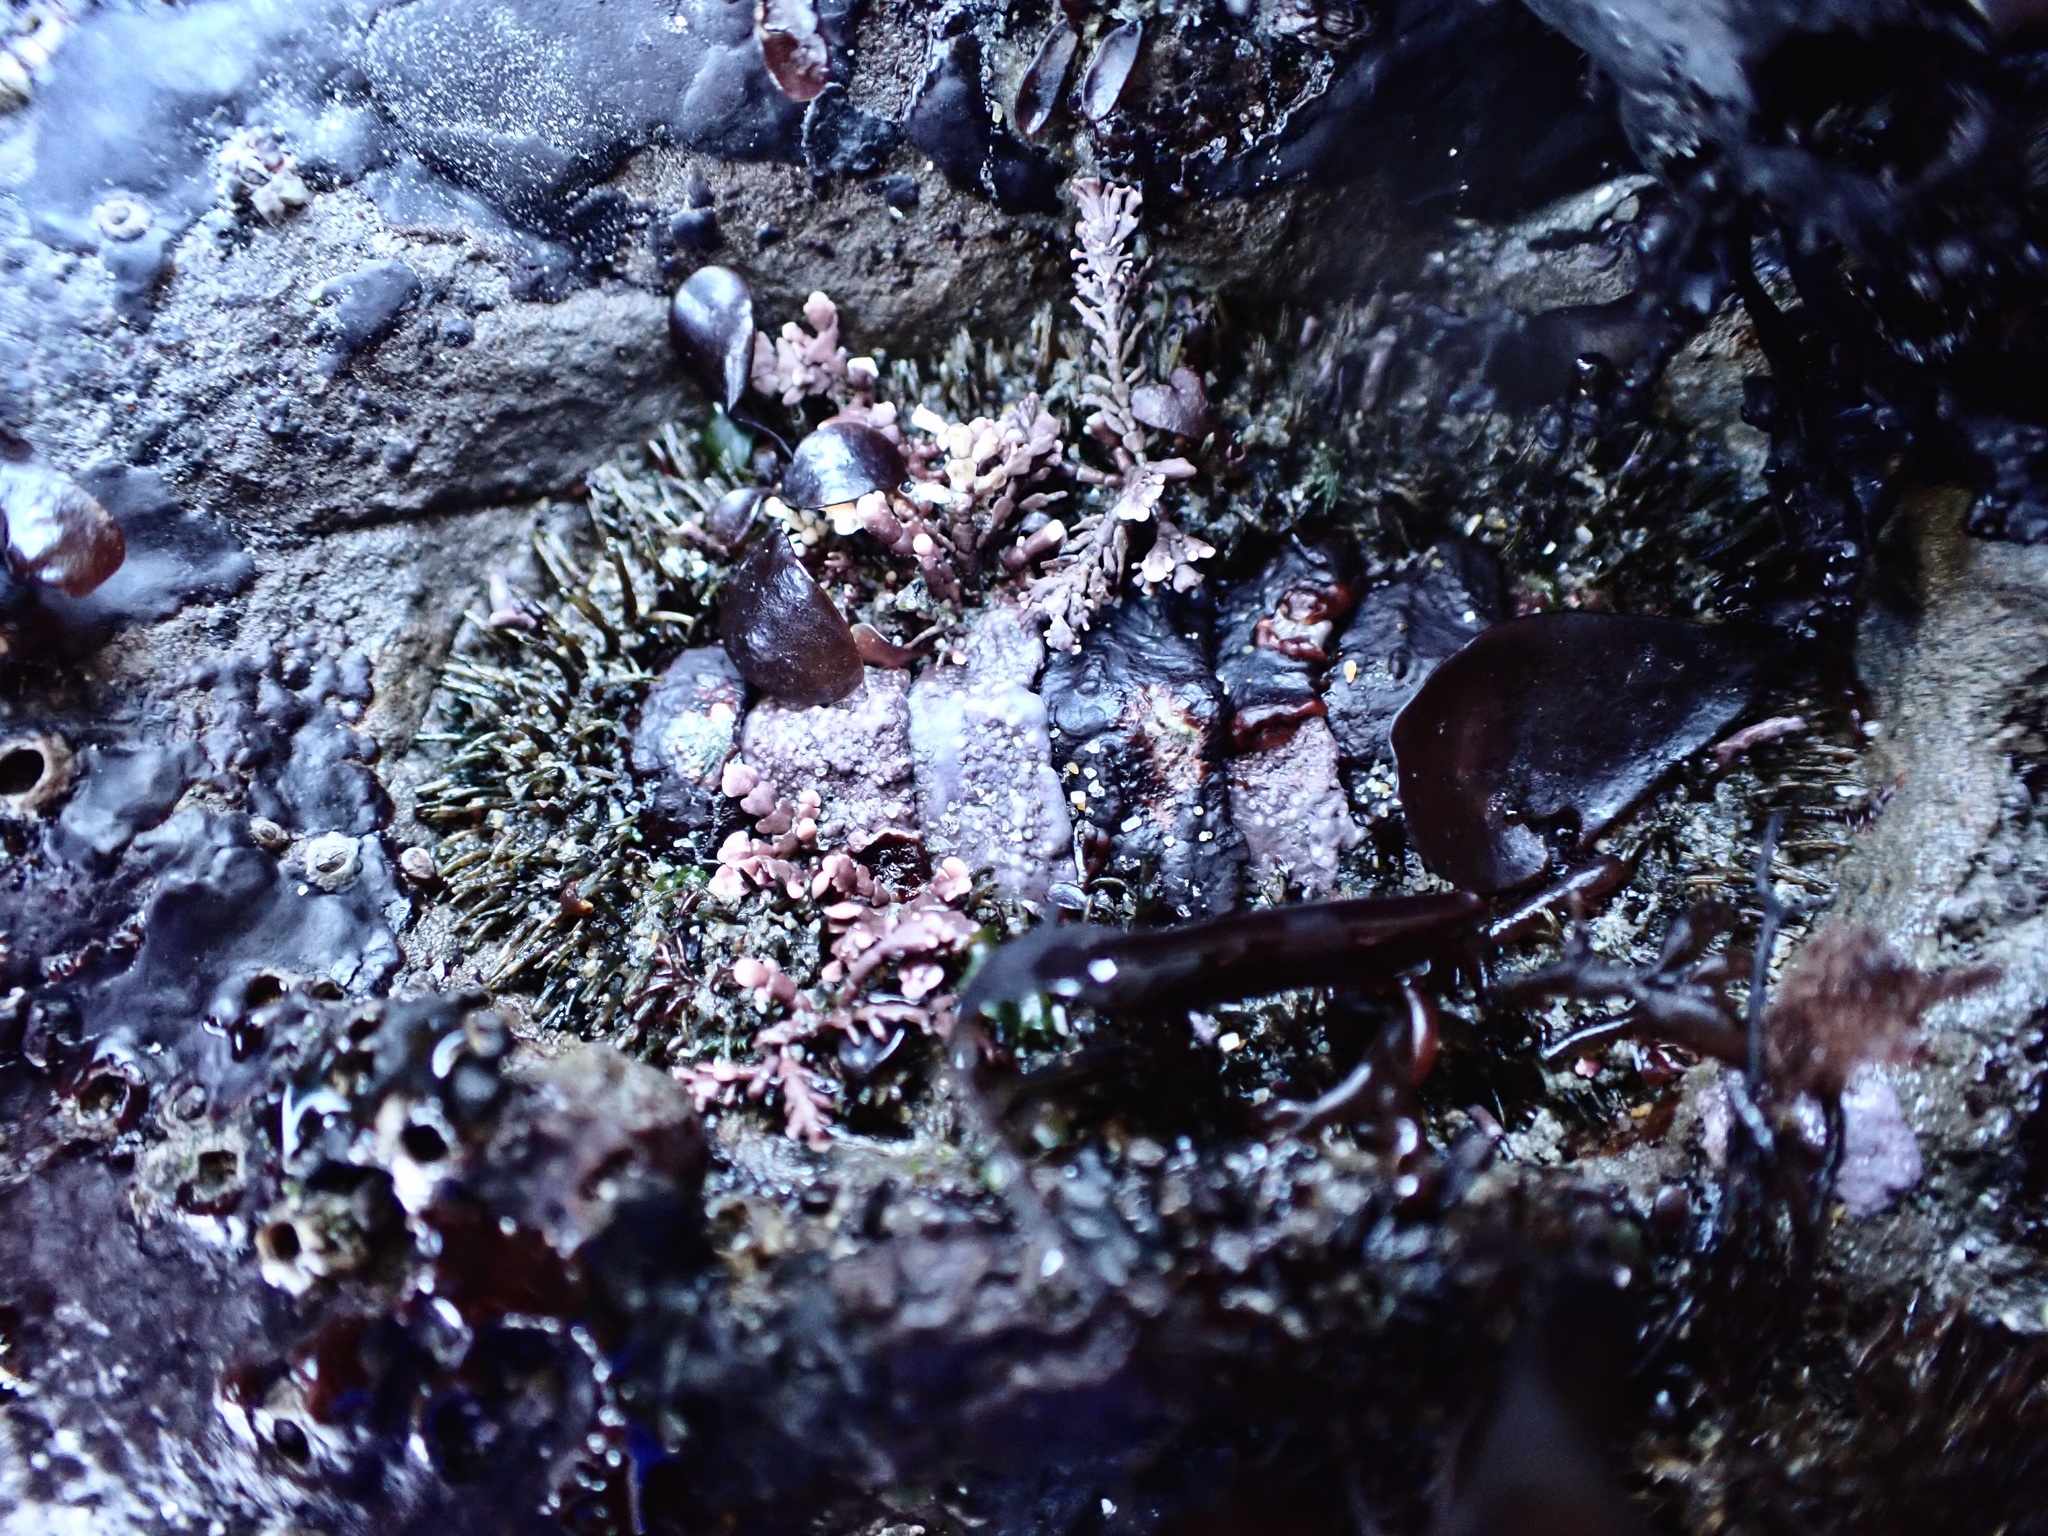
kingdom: Animalia
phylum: Mollusca
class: Polyplacophora
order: Chitonida
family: Mopaliidae
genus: Mopalia
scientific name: Mopalia muscosa
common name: Mossy chiton
